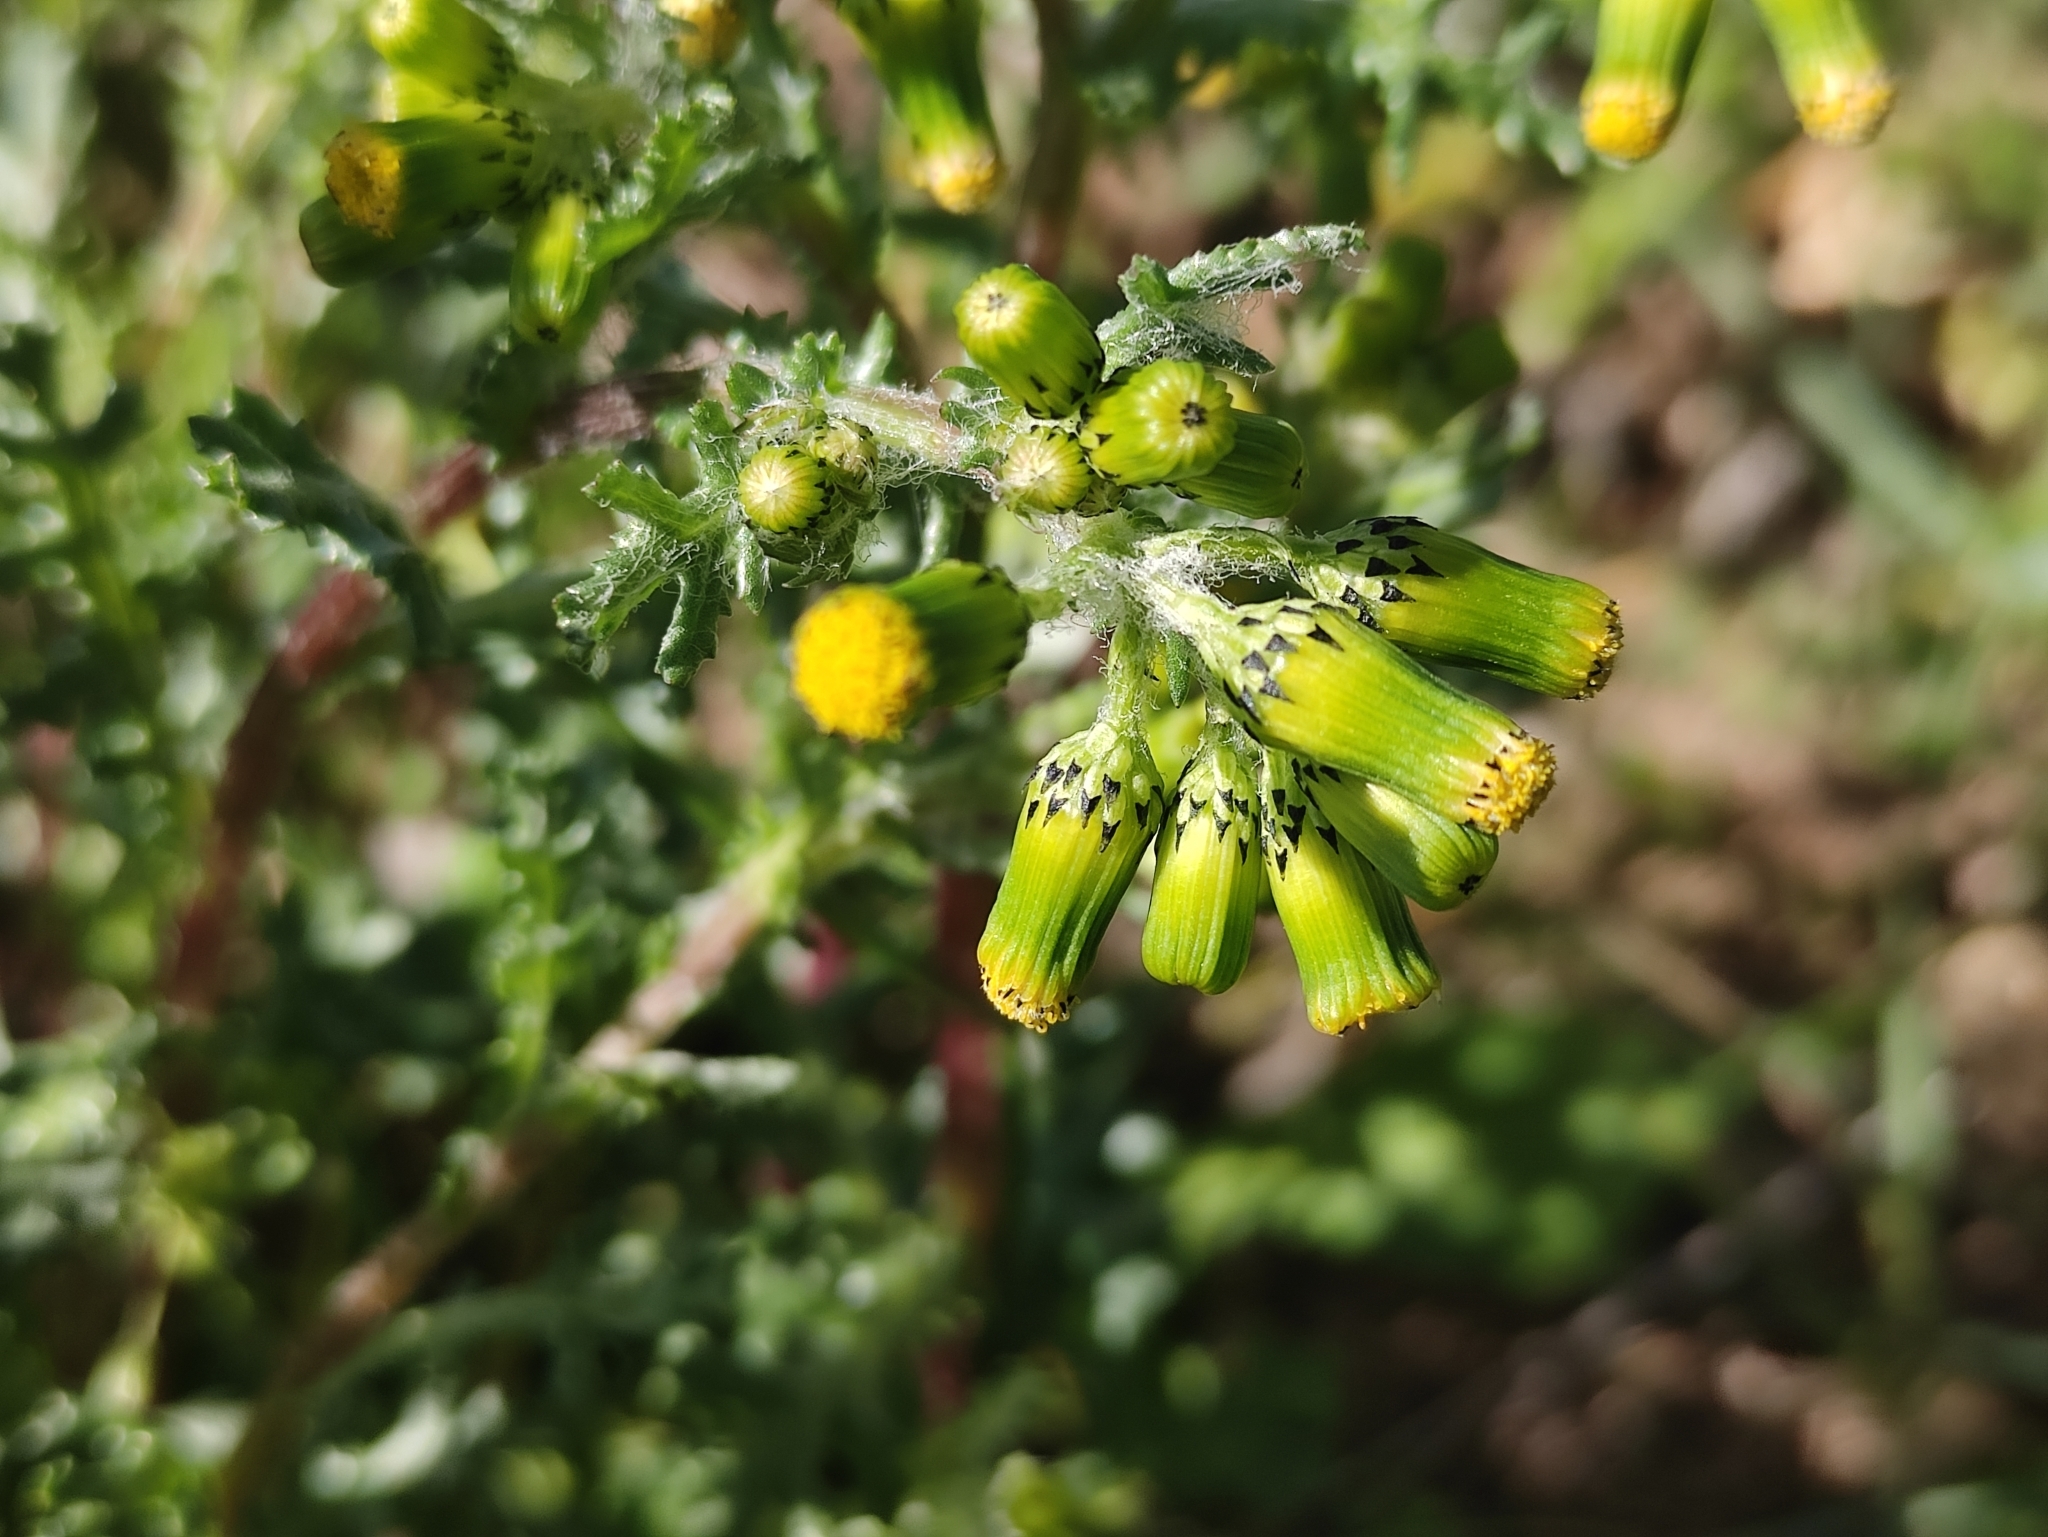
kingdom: Plantae
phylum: Tracheophyta
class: Magnoliopsida
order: Asterales
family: Asteraceae
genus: Senecio
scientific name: Senecio vulgaris
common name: Old-man-in-the-spring
